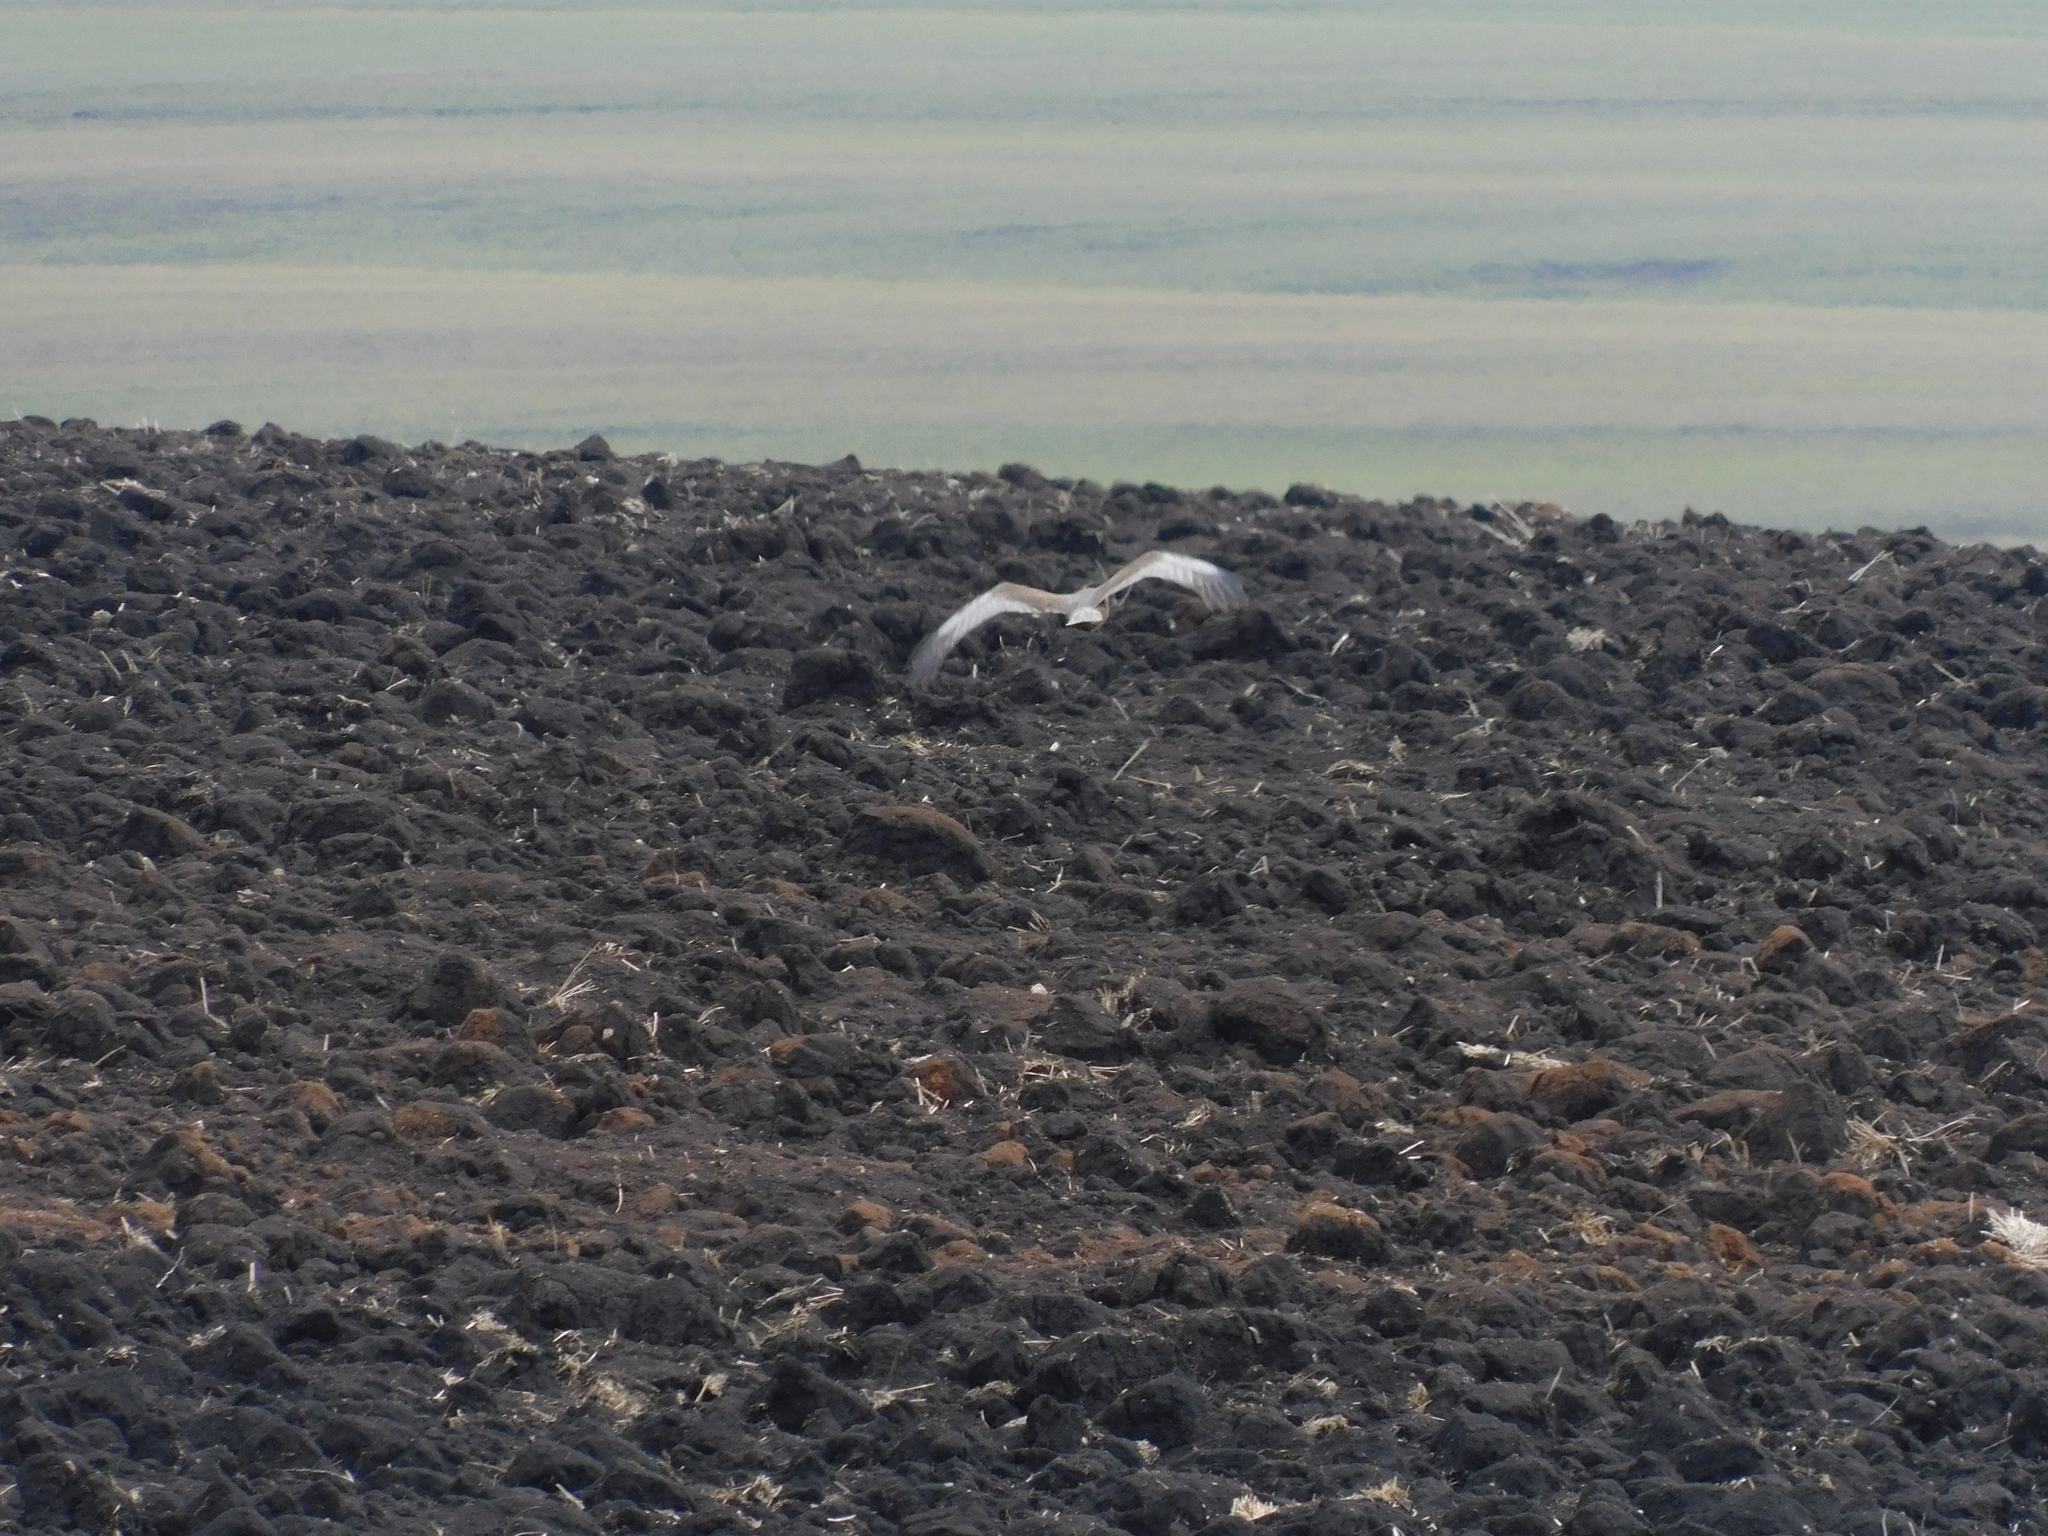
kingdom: Animalia
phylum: Chordata
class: Aves
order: Accipitriformes
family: Accipitridae
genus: Circus
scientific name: Circus aeruginosus
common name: Western marsh harrier
